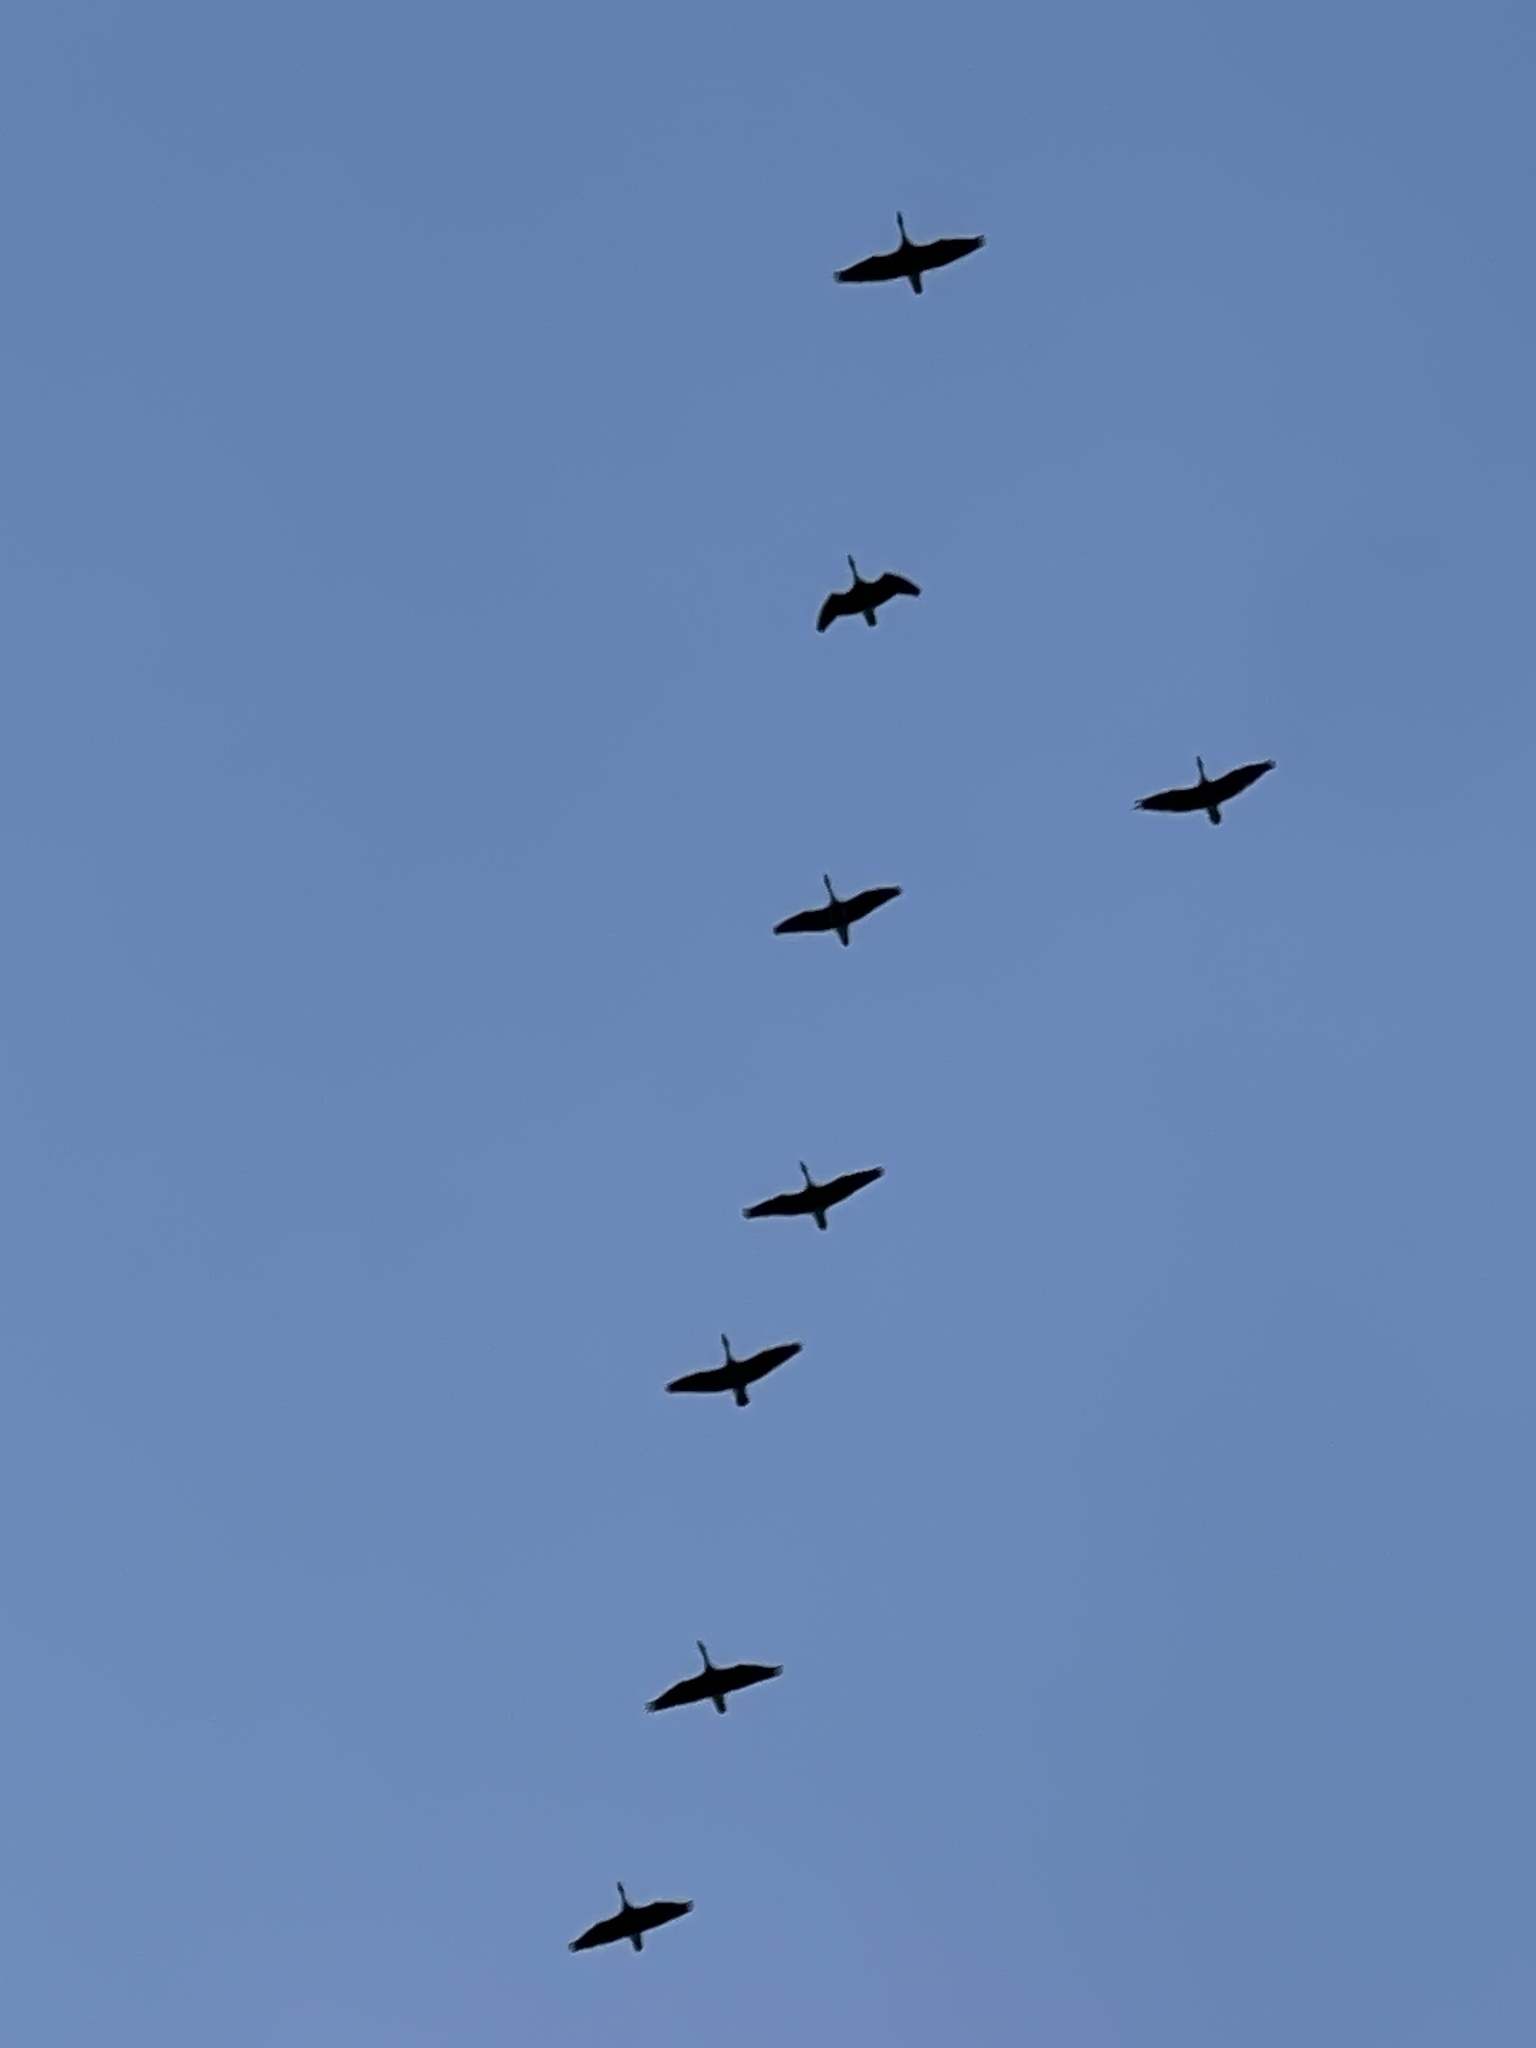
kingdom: Animalia
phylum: Chordata
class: Aves
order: Anseriformes
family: Anatidae
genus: Branta
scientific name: Branta canadensis
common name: Canada goose
